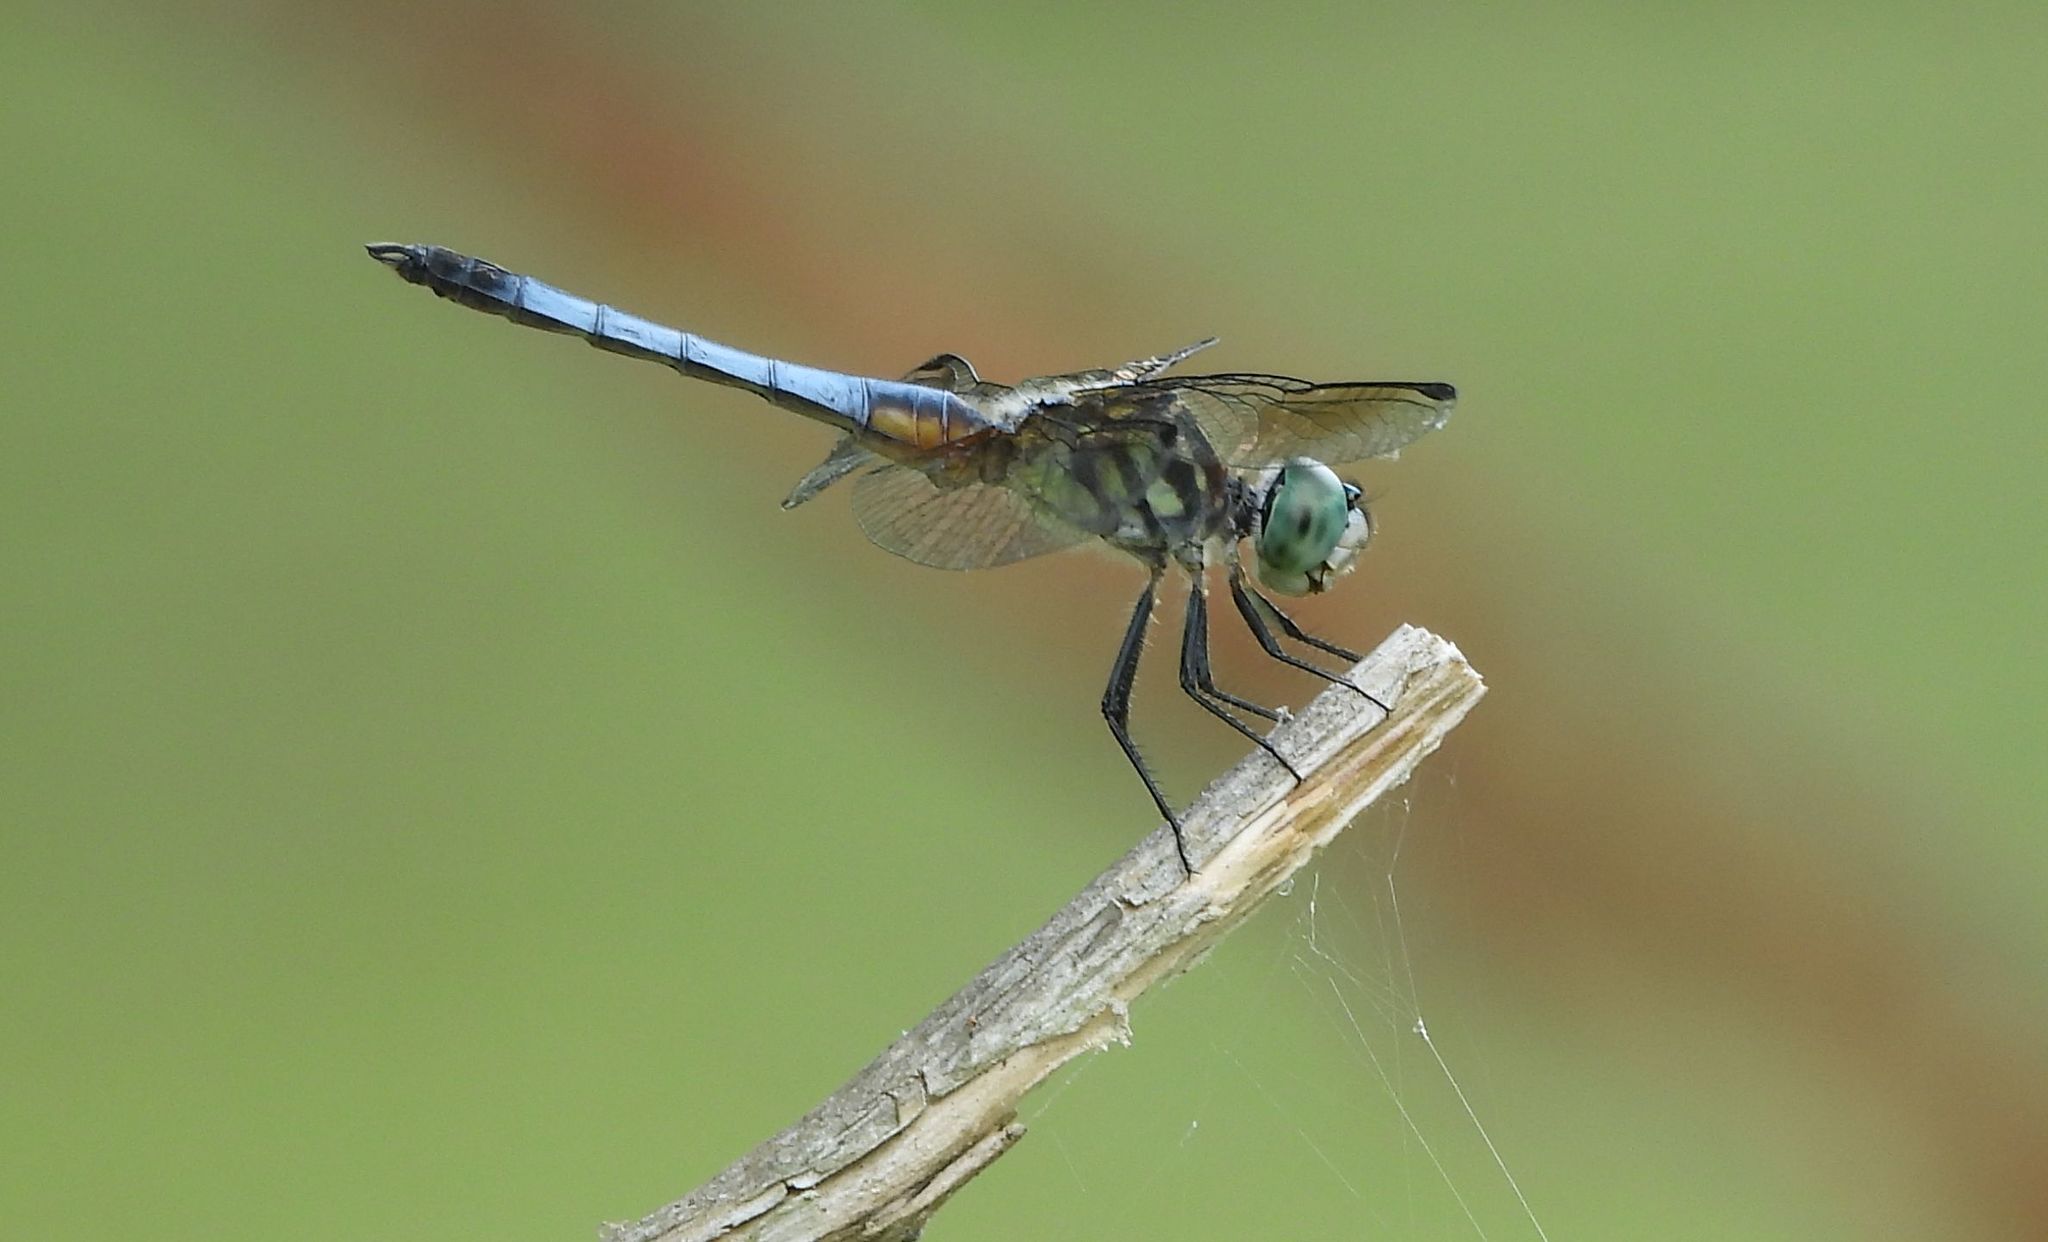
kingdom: Animalia
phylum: Arthropoda
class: Insecta
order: Odonata
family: Libellulidae
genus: Pachydiplax
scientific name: Pachydiplax longipennis
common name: Blue dasher
